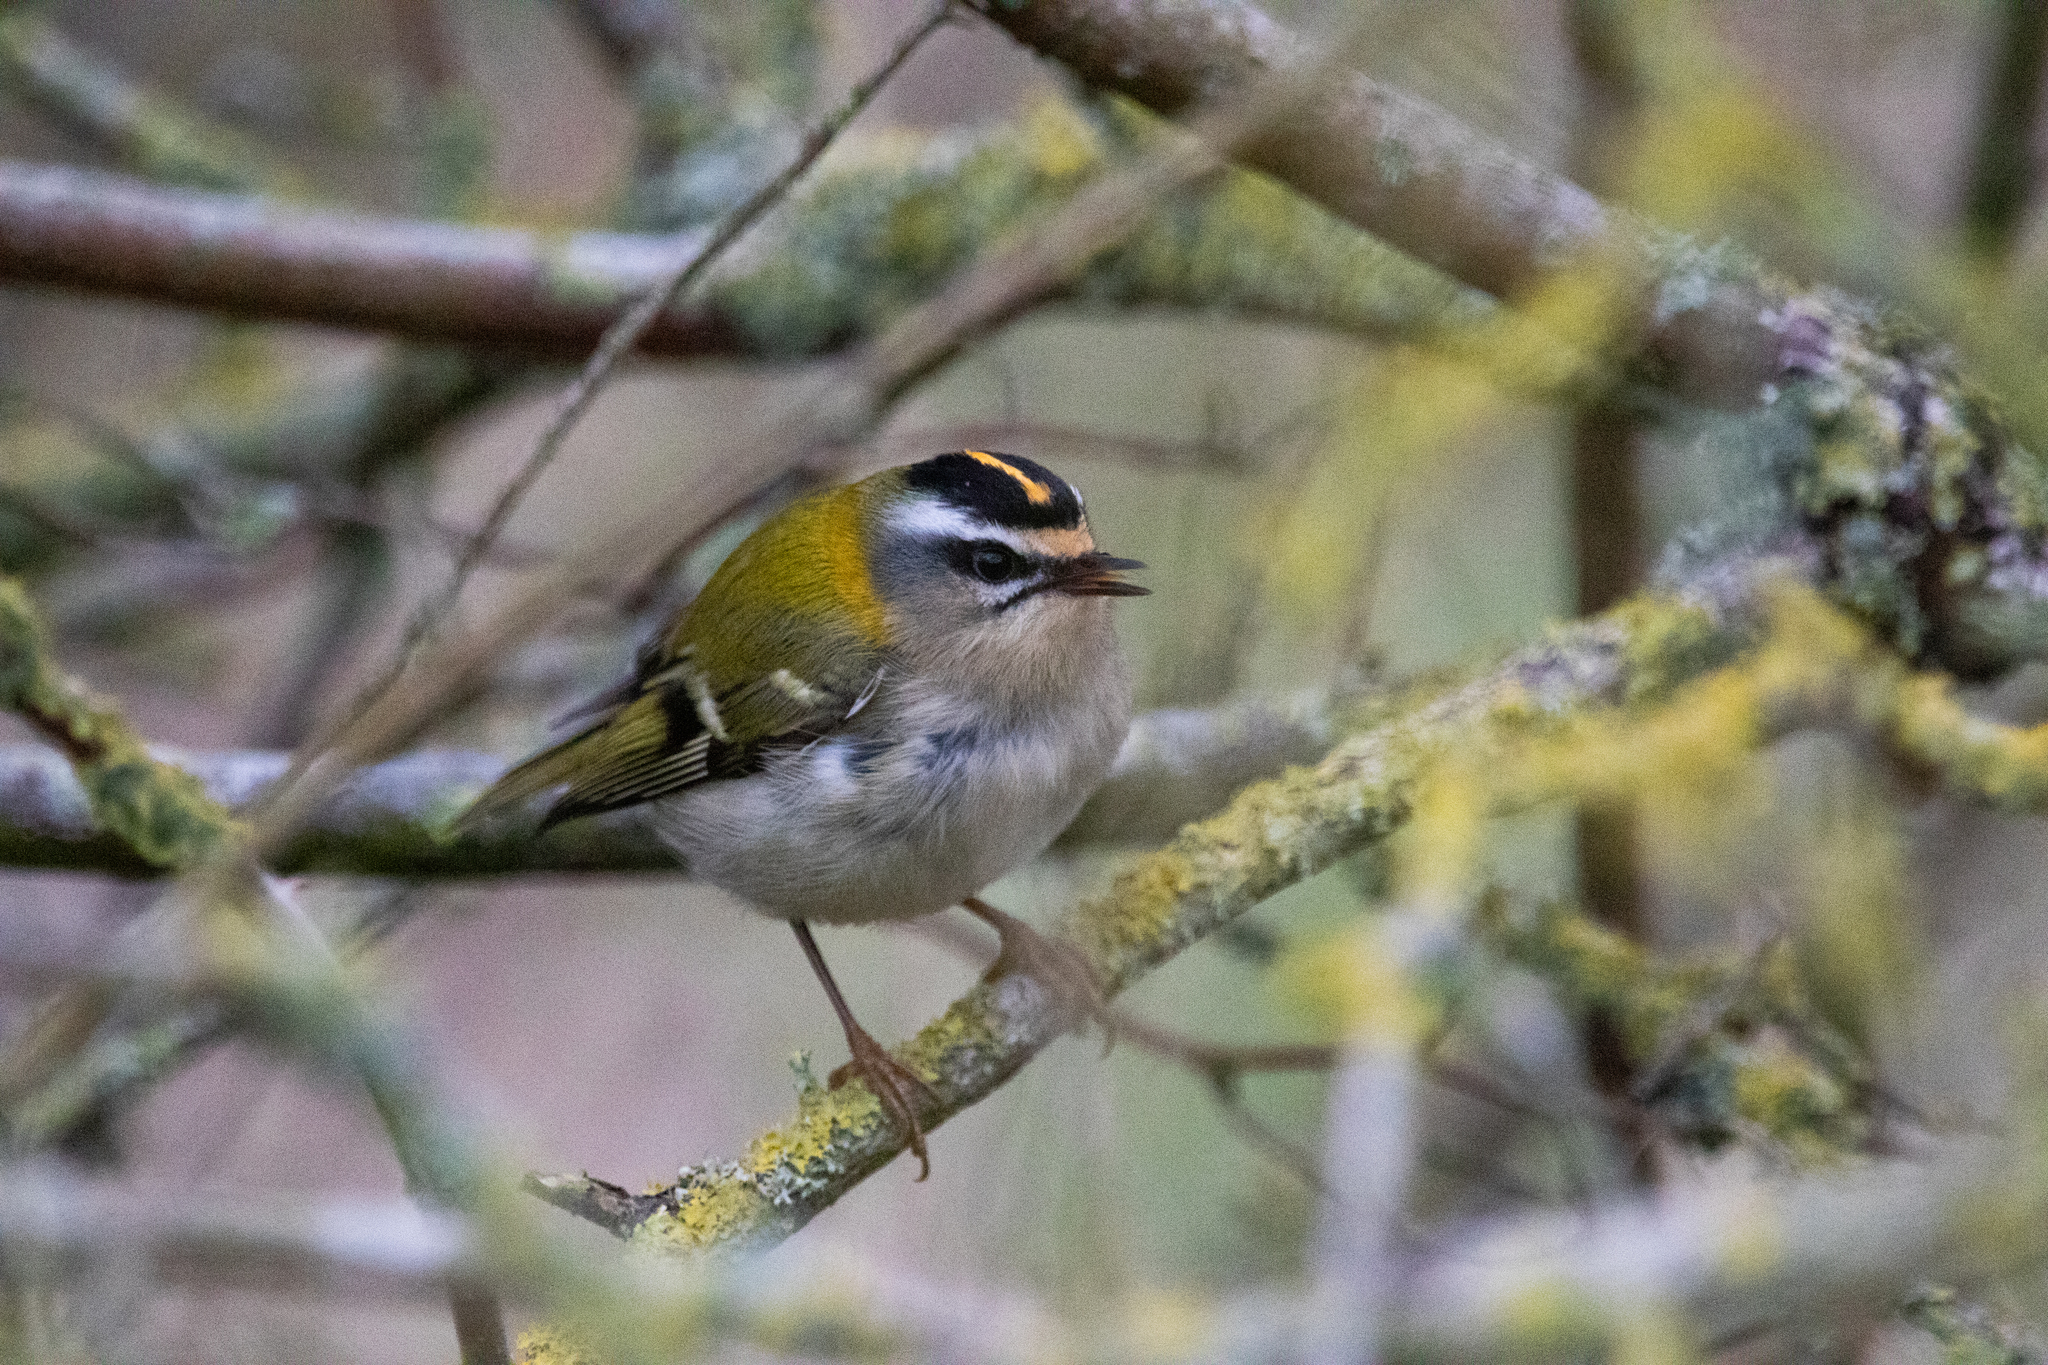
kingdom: Animalia
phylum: Chordata
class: Aves
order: Passeriformes
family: Regulidae
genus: Regulus
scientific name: Regulus ignicapilla
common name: Firecrest
